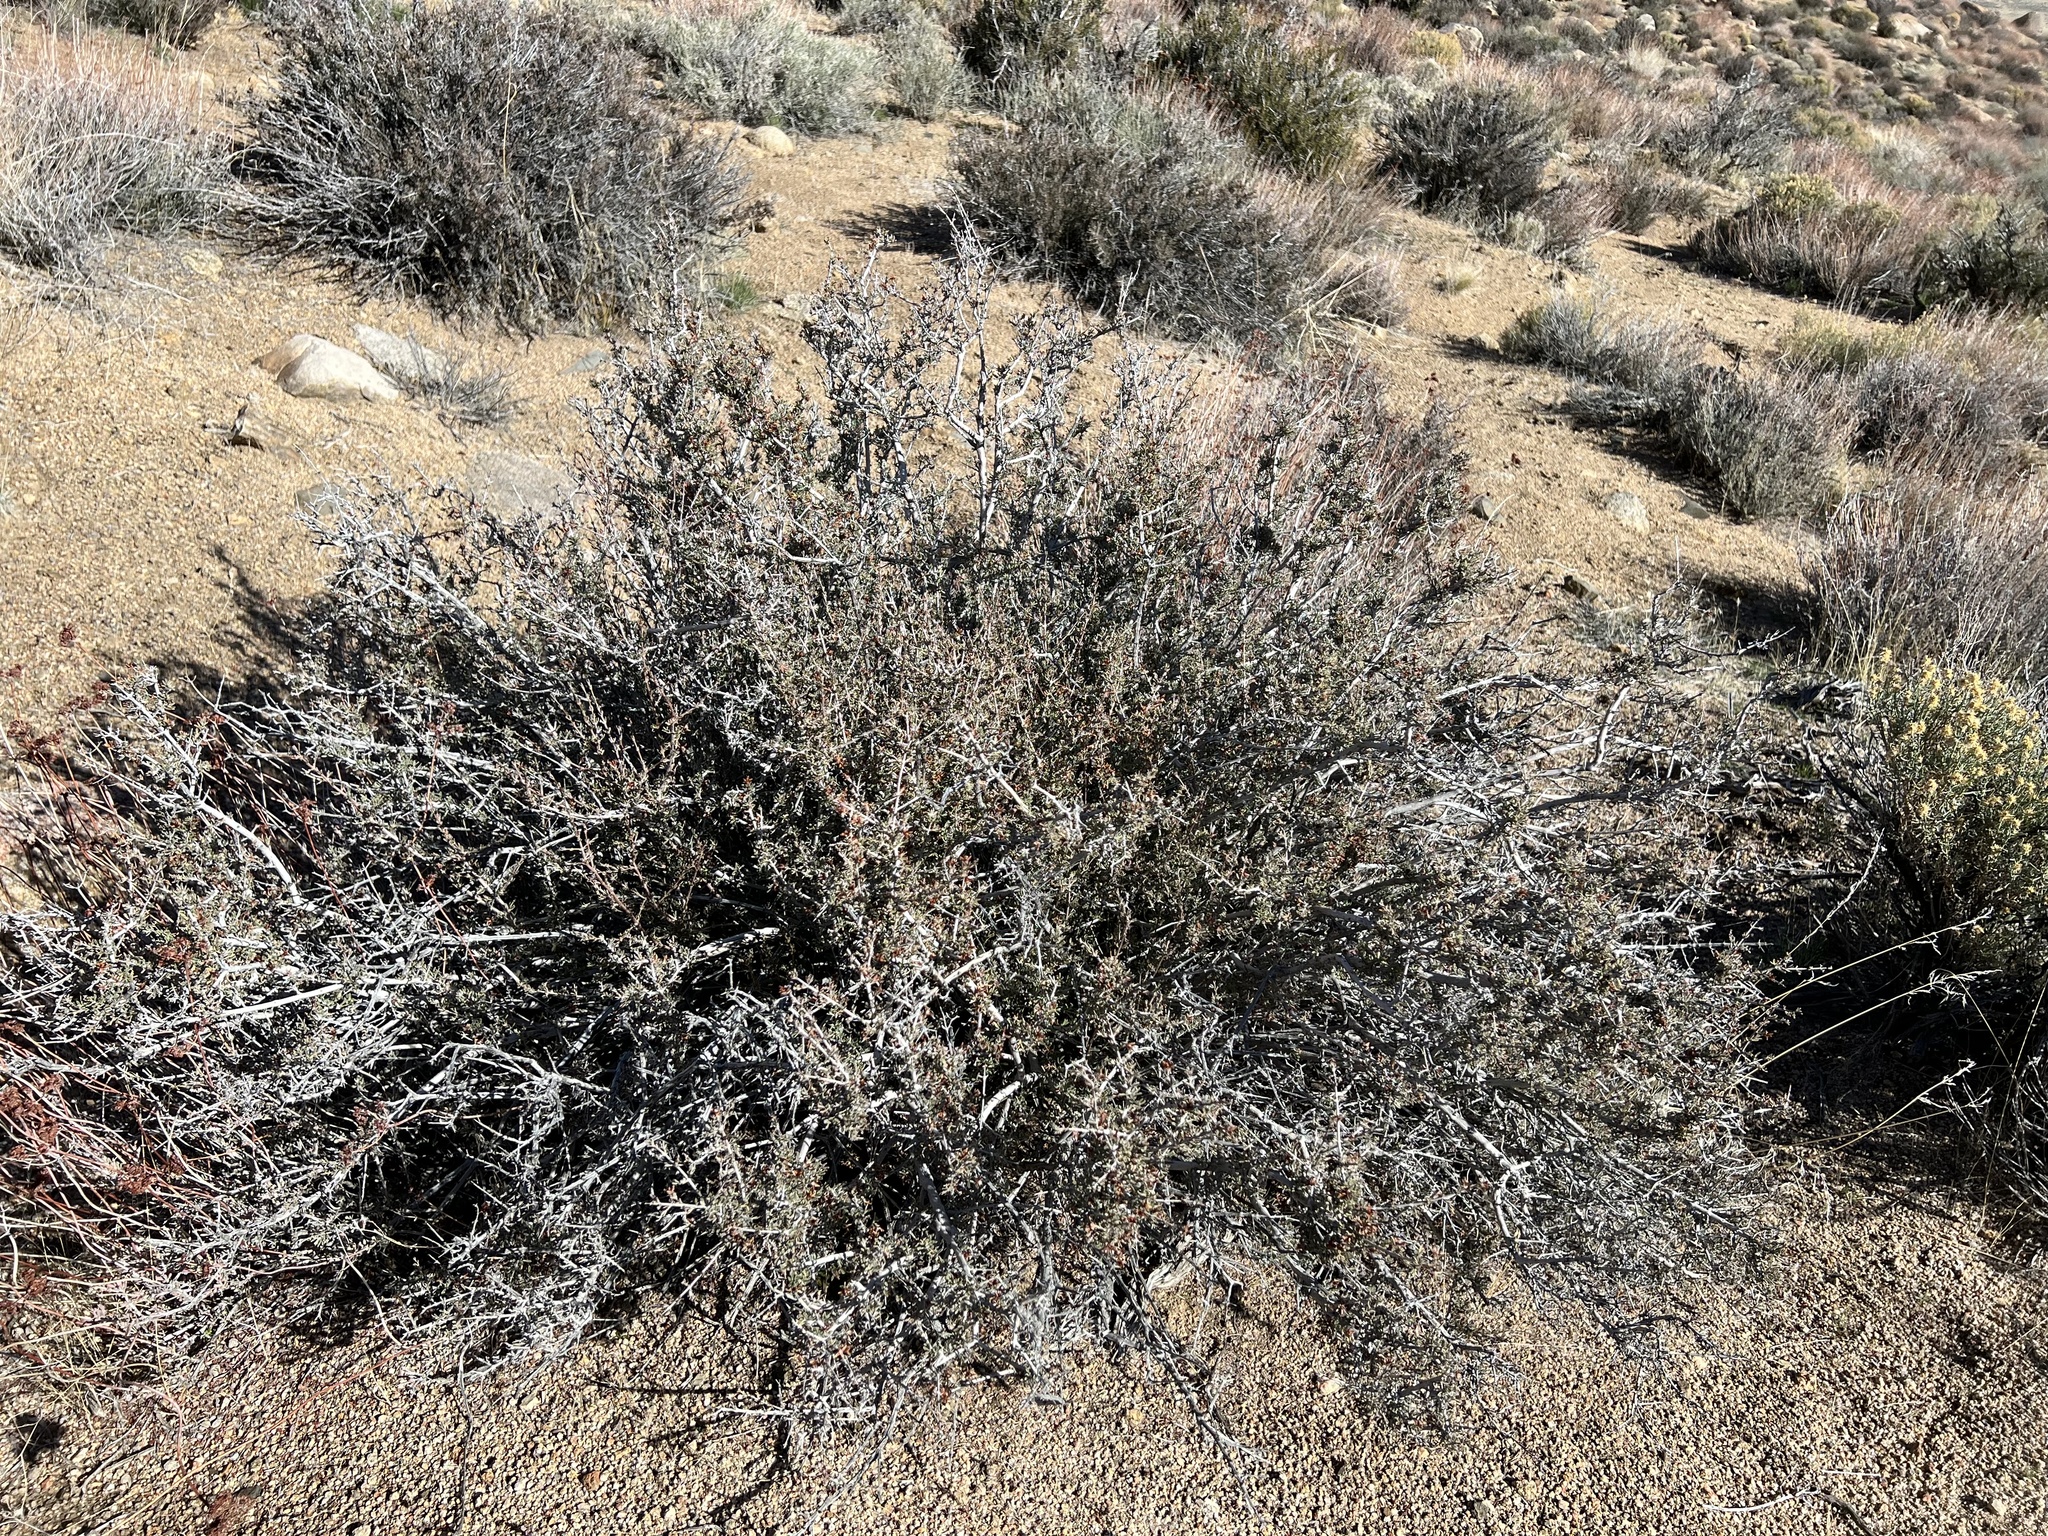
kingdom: Plantae
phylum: Tracheophyta
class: Magnoliopsida
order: Rosales
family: Rosaceae
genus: Coleogyne
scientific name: Coleogyne ramosissima
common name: Blackbrush
